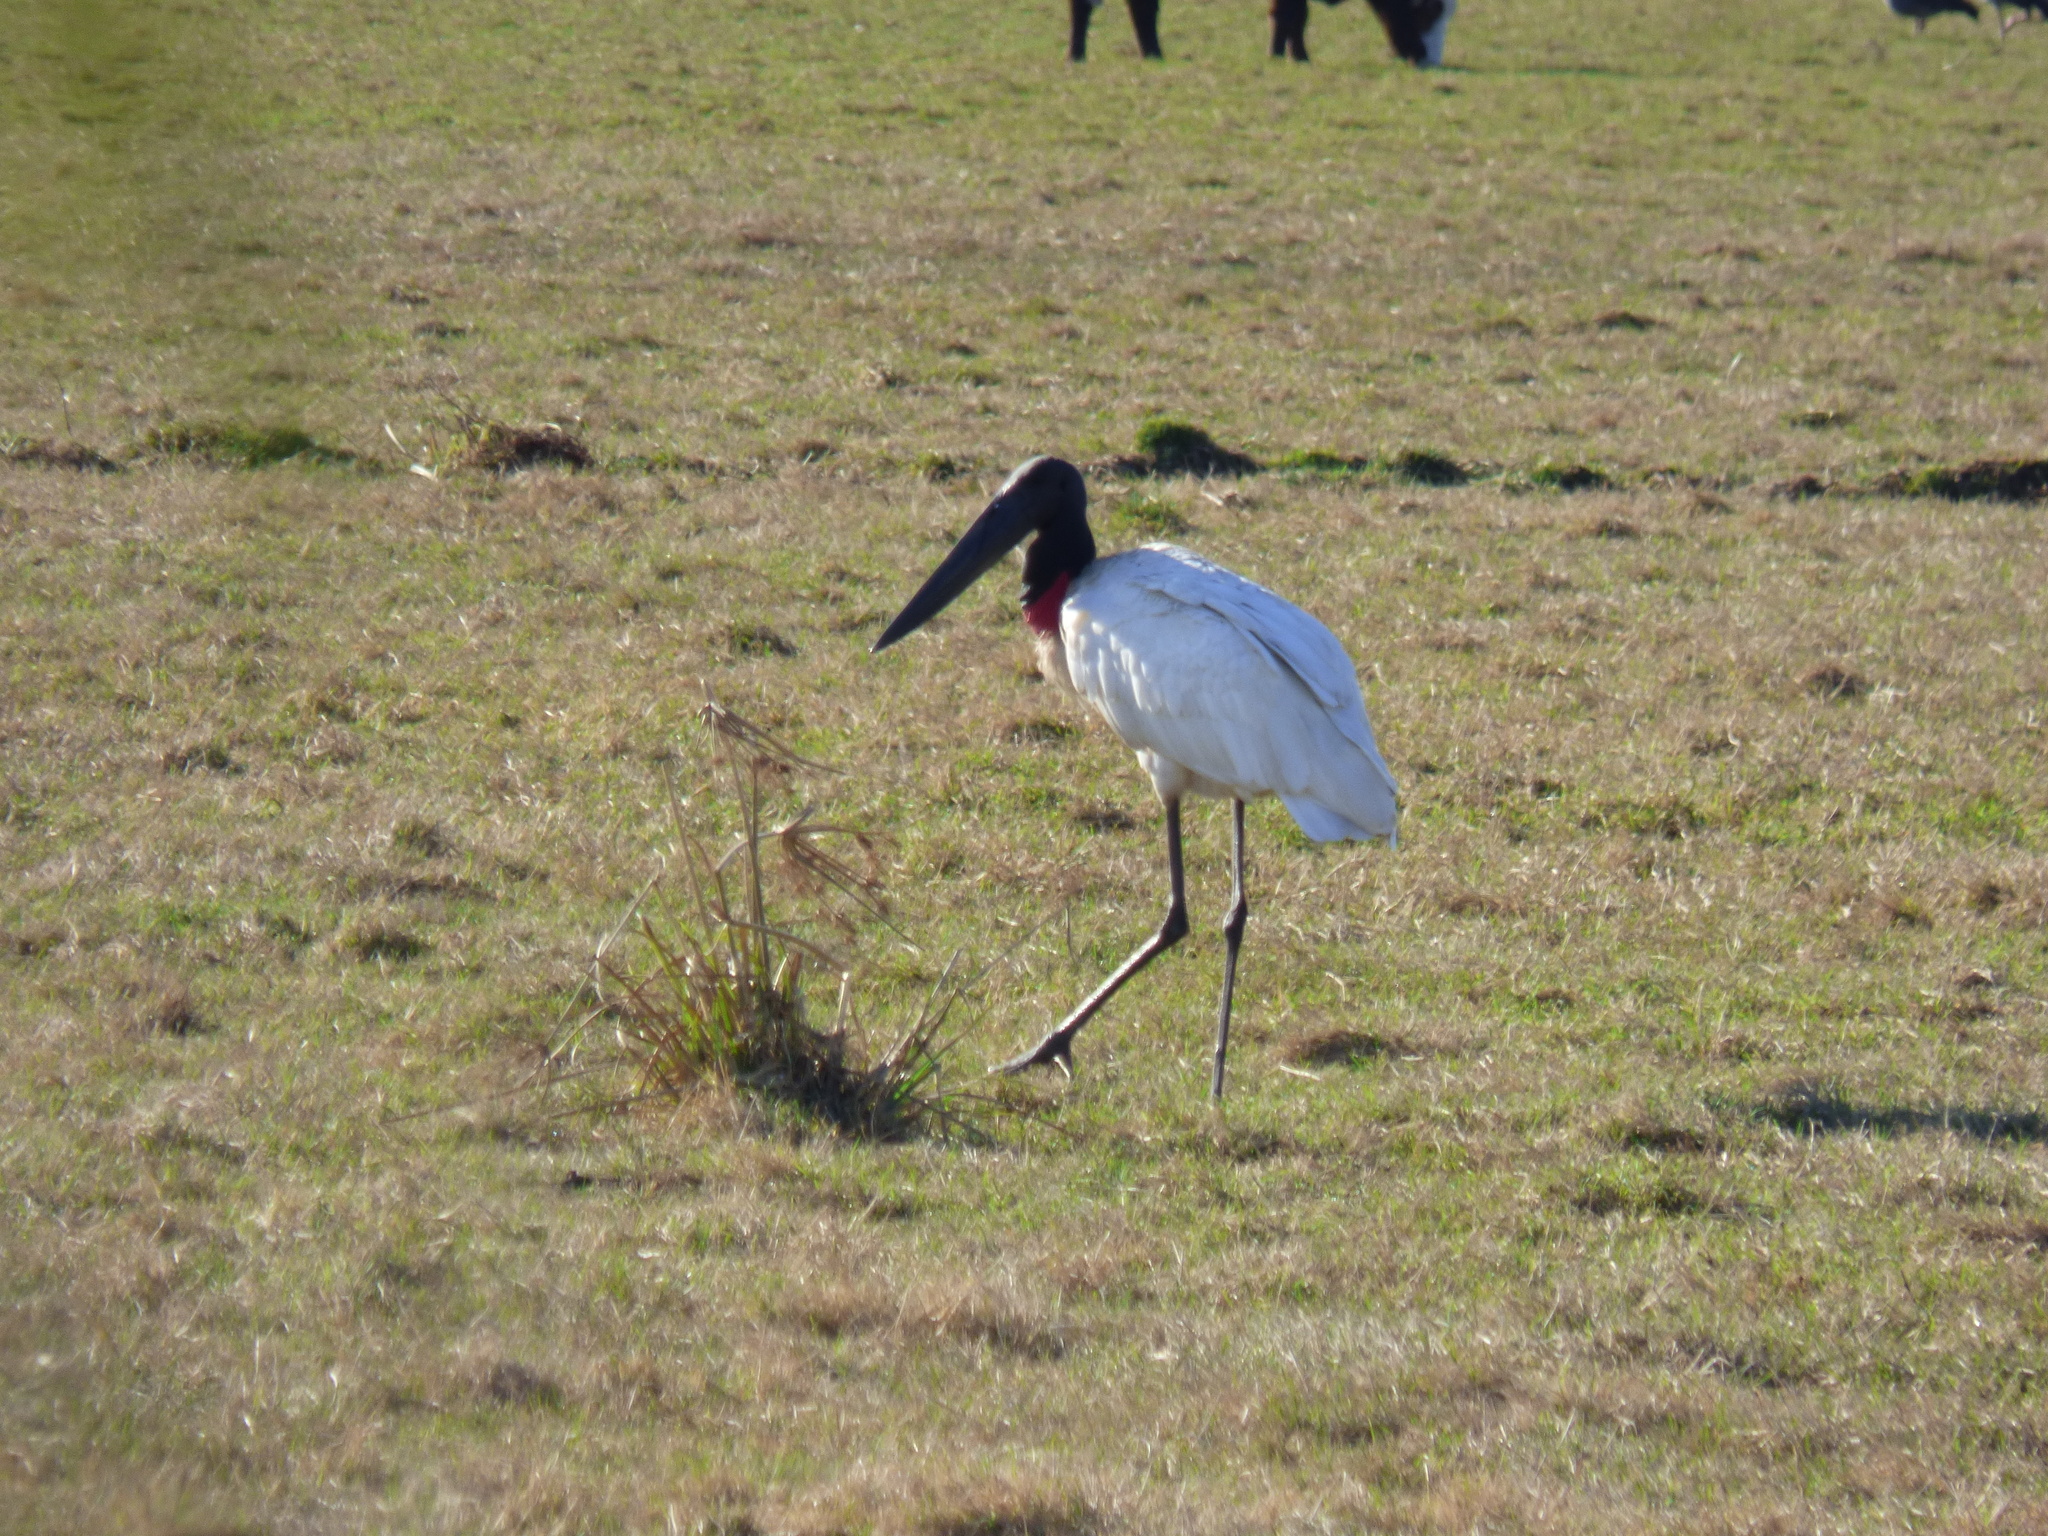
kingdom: Animalia
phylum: Chordata
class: Aves
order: Ciconiiformes
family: Ciconiidae
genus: Jabiru
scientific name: Jabiru mycteria
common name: Jabiru
